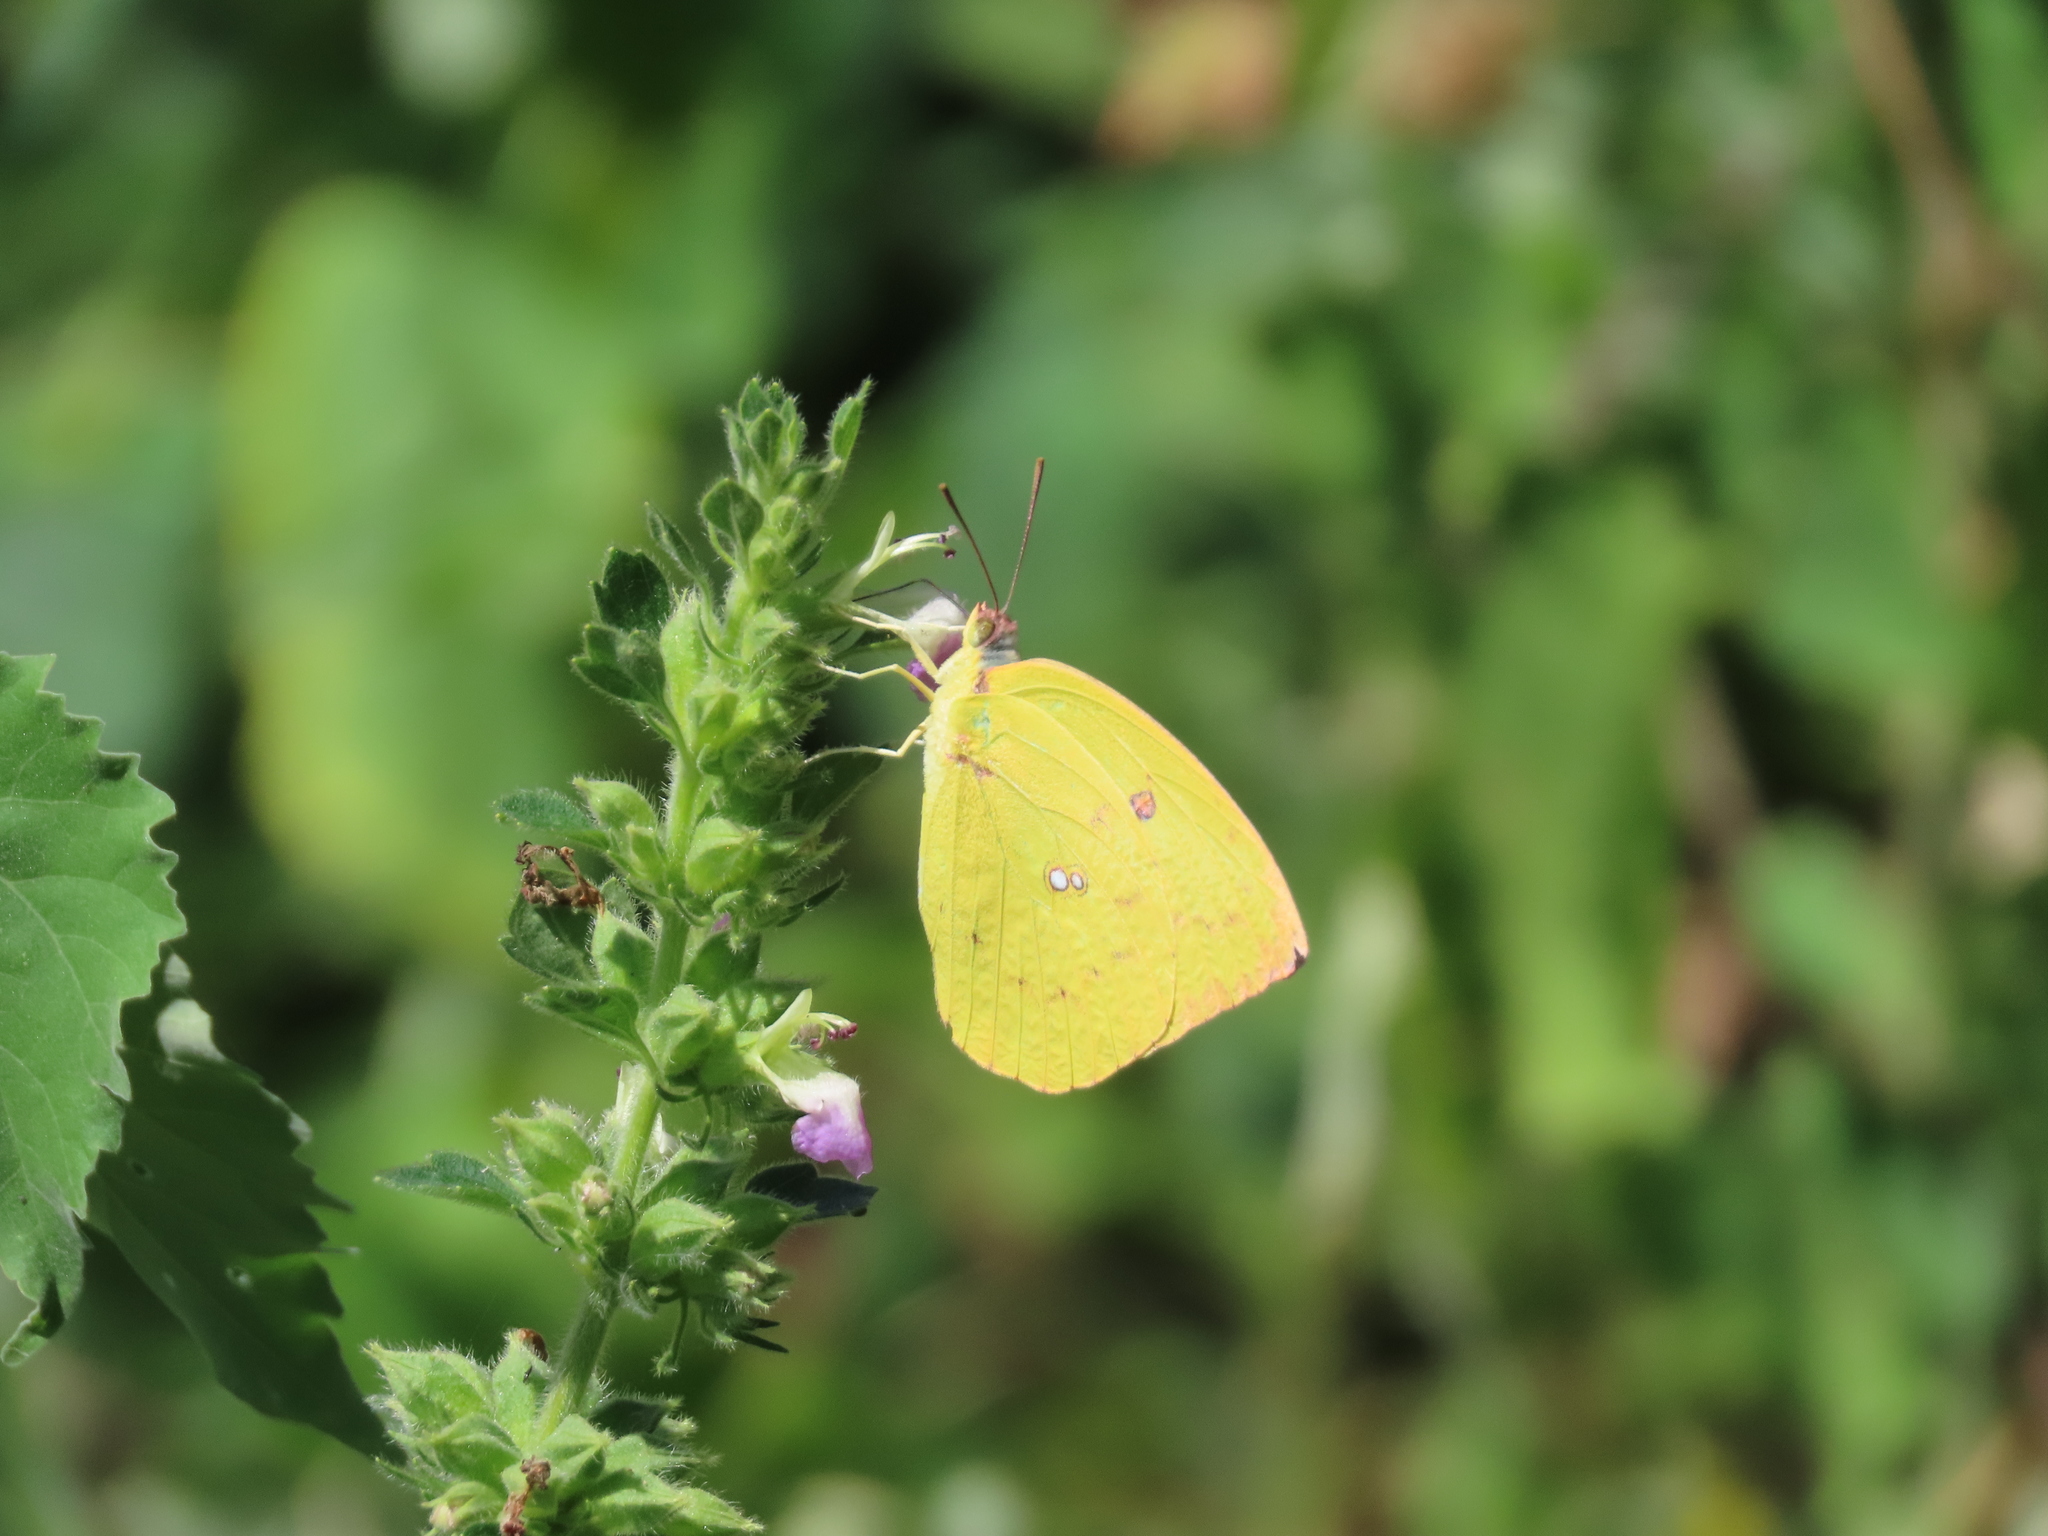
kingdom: Animalia
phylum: Arthropoda
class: Insecta
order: Lepidoptera
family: Pieridae
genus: Catopsilia
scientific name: Catopsilia pomona
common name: Common emigrant
